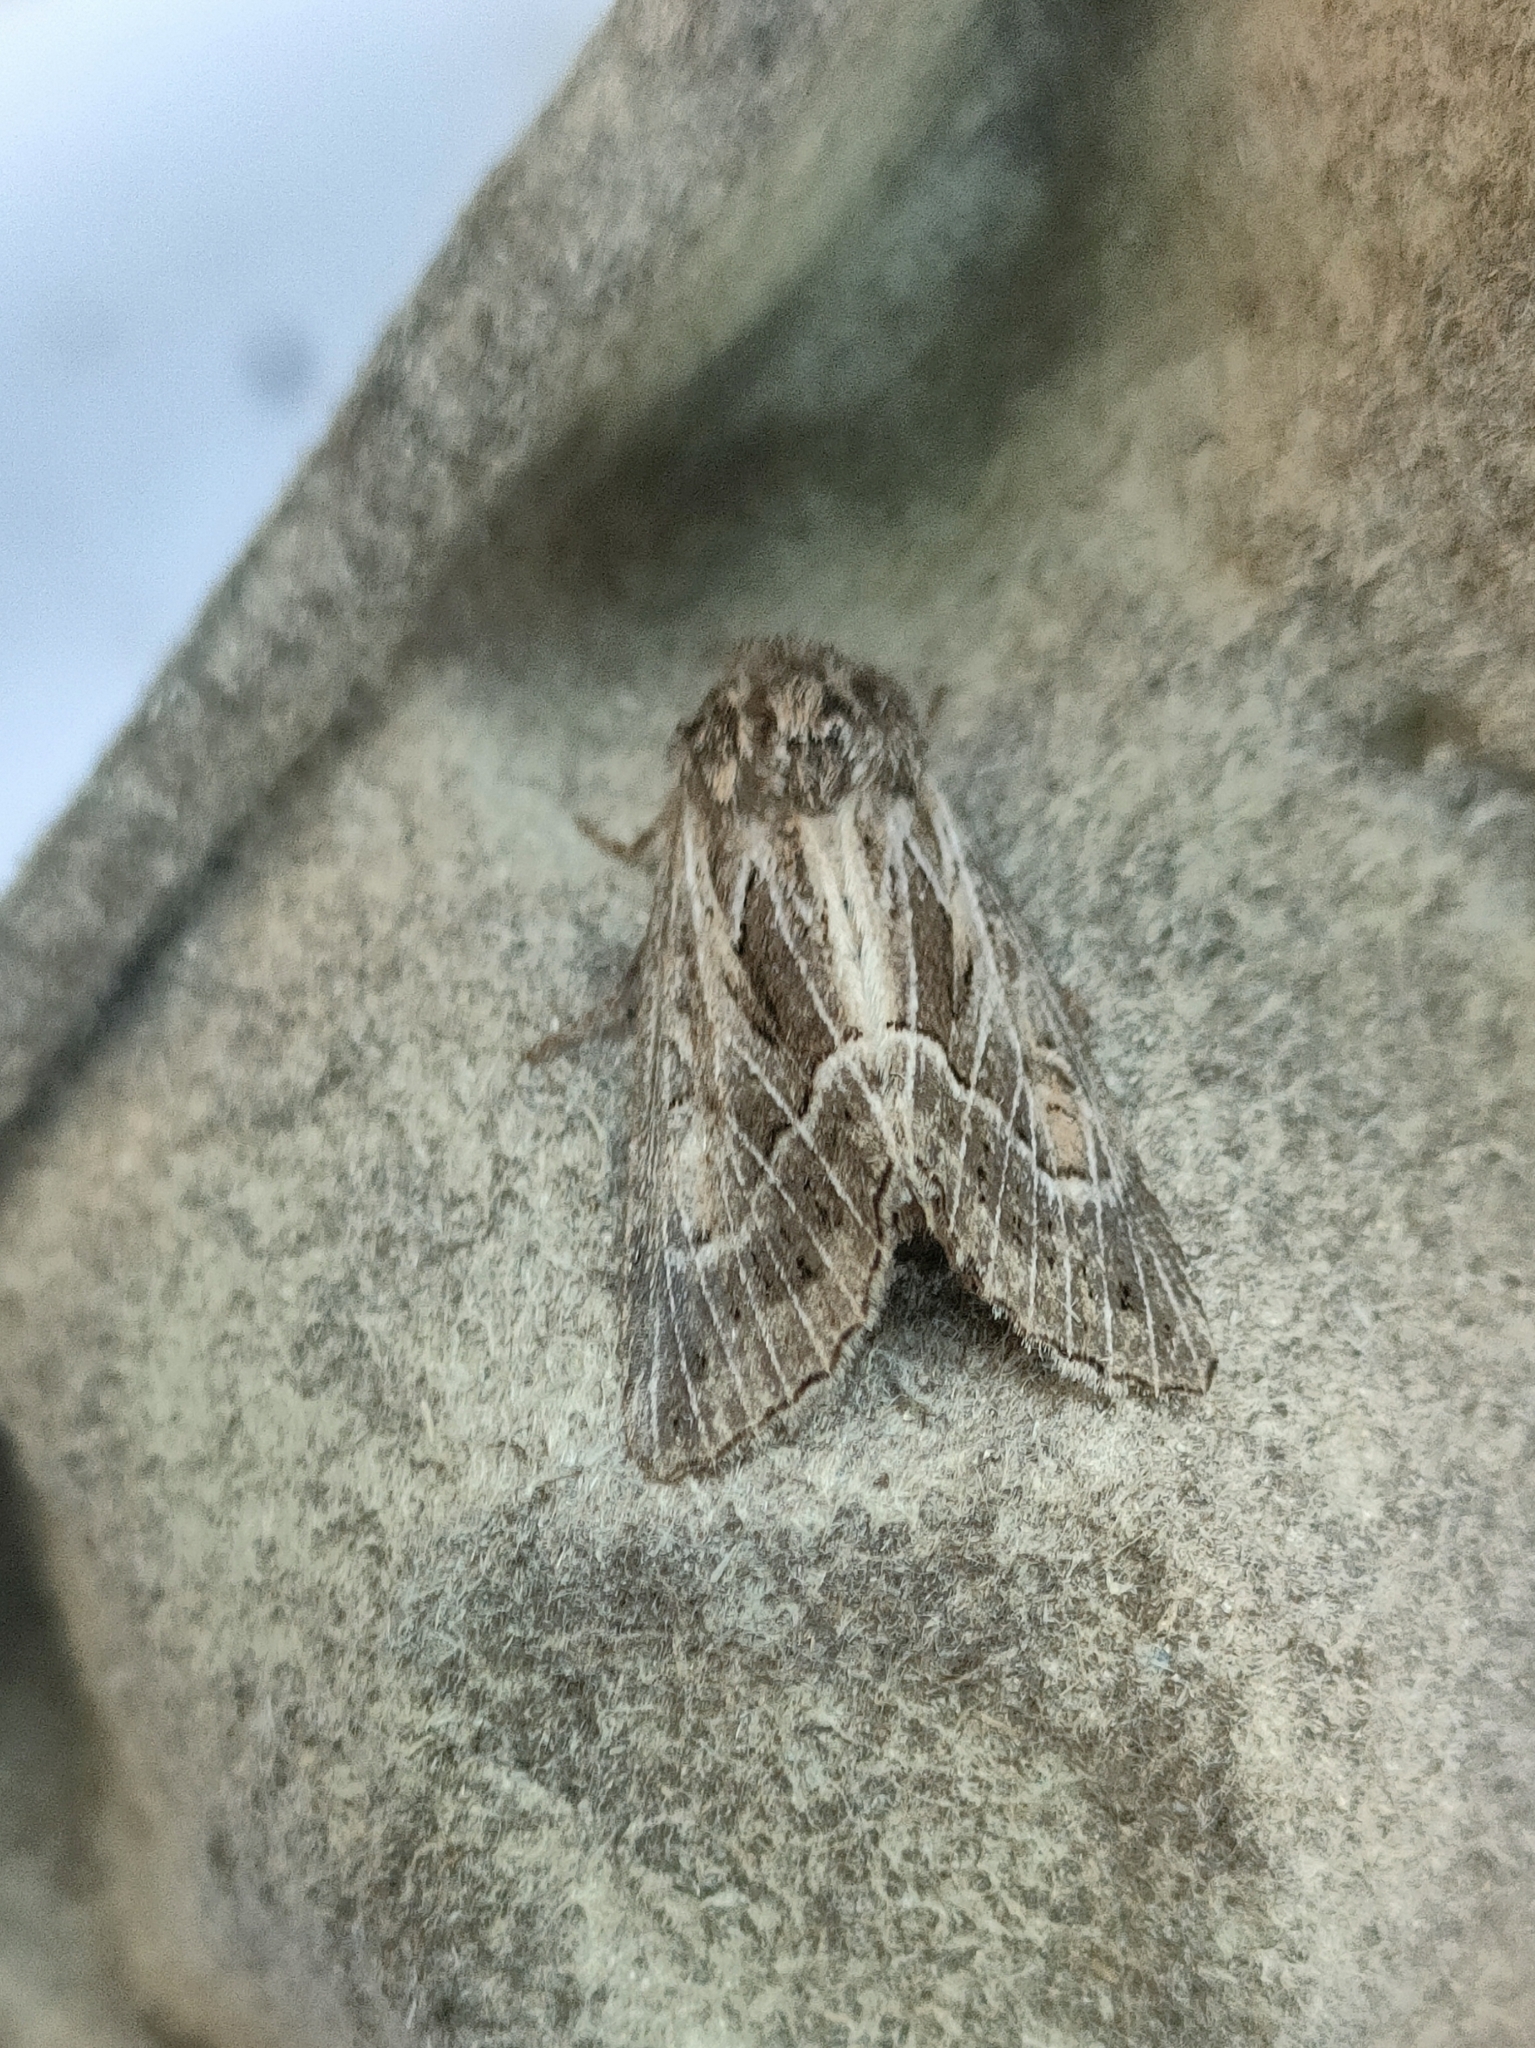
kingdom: Animalia
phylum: Arthropoda
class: Insecta
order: Lepidoptera
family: Noctuidae
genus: Thalpophila
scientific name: Thalpophila vitalba
